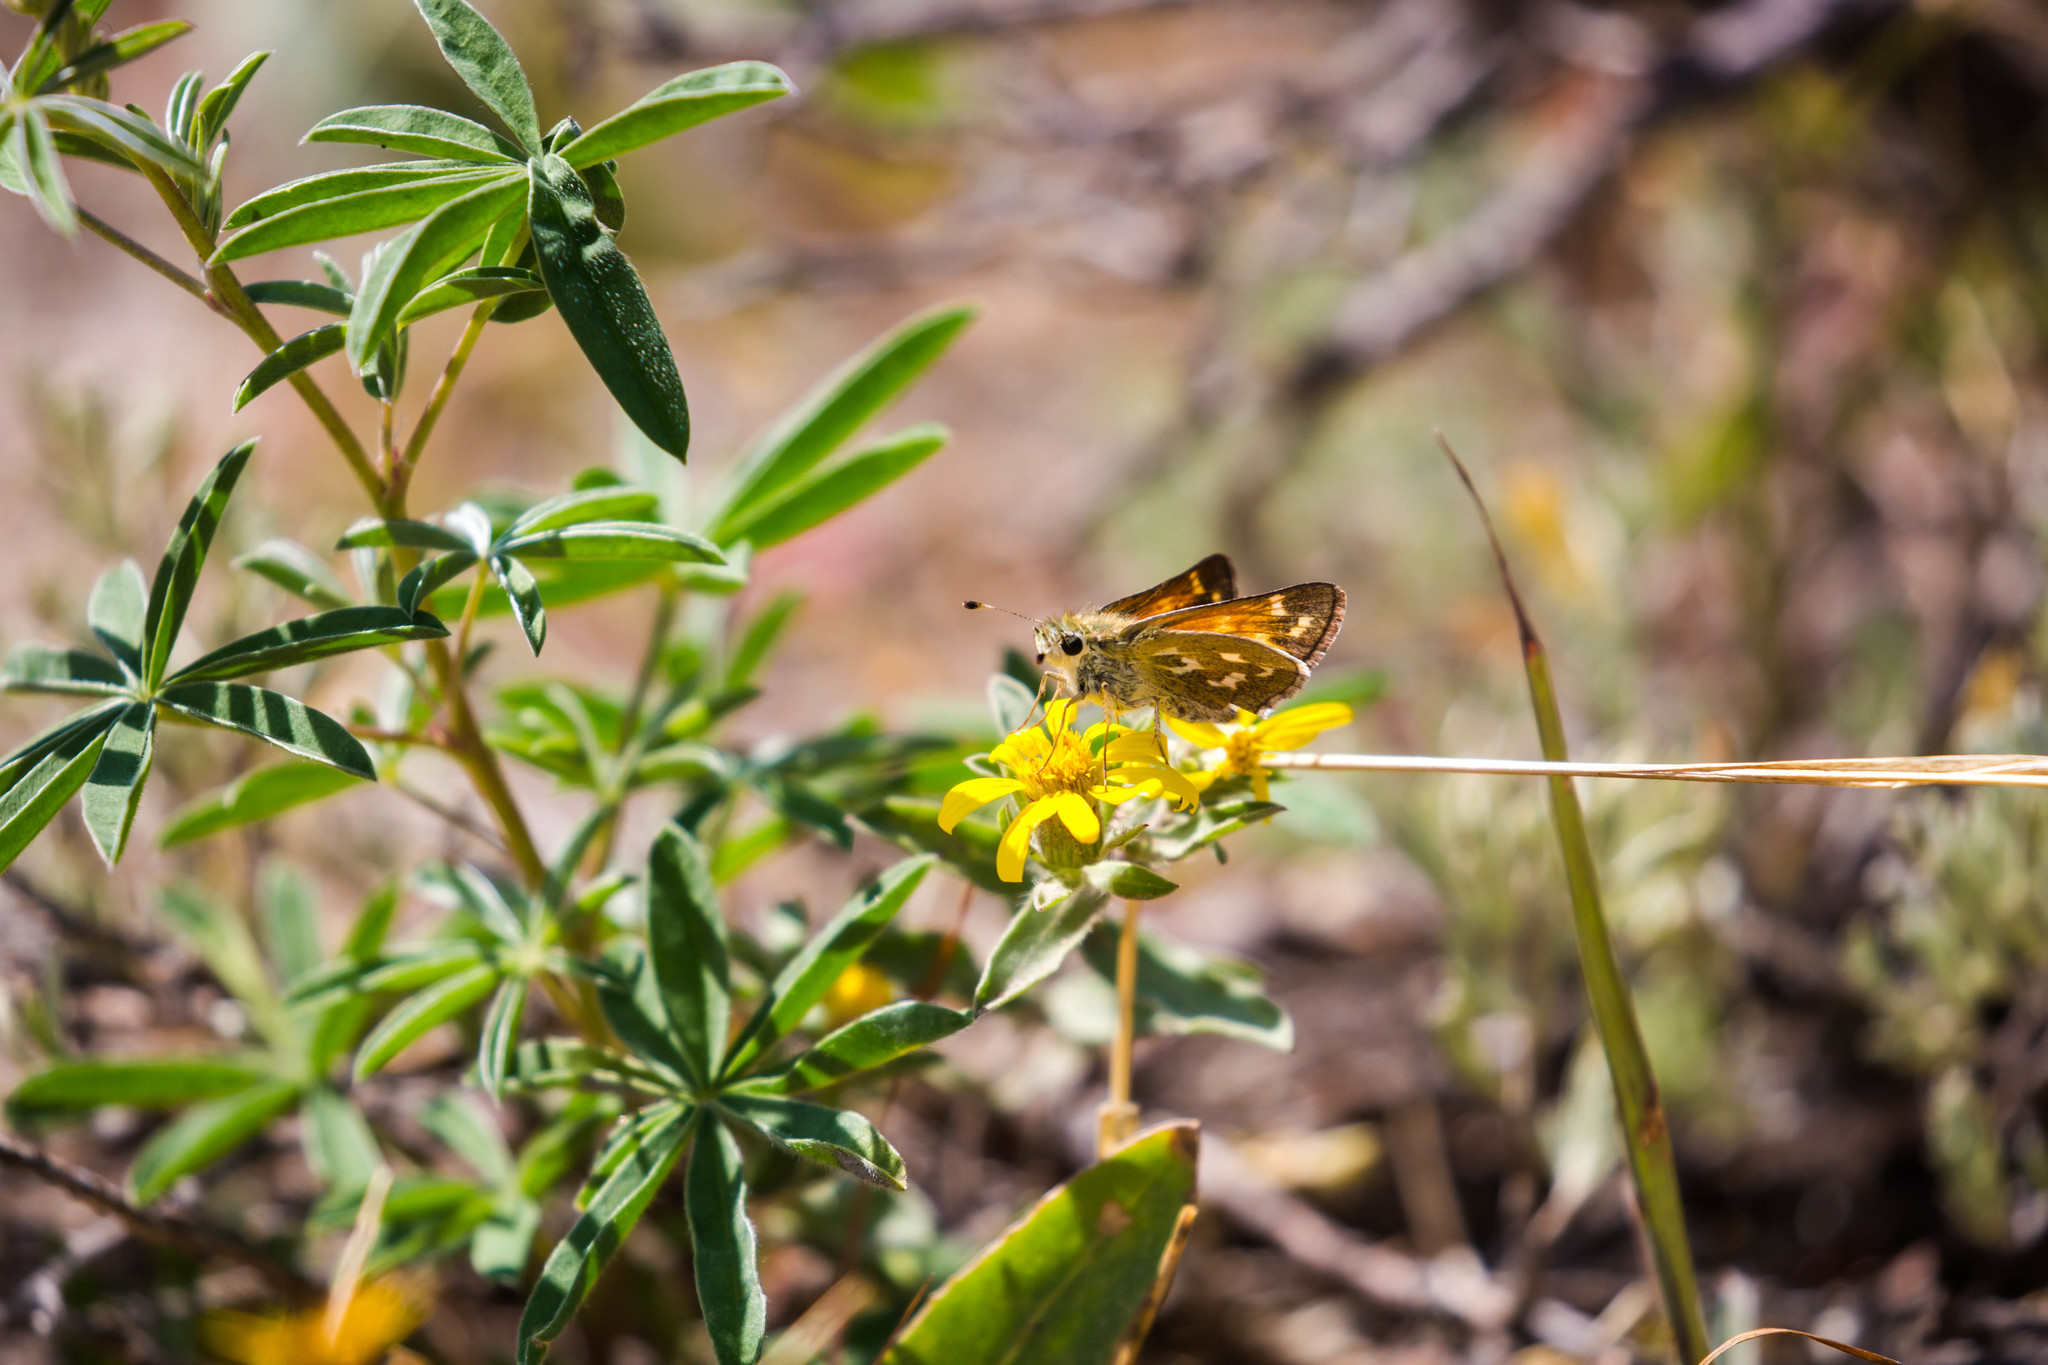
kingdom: Animalia
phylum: Arthropoda
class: Insecta
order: Lepidoptera
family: Hesperiidae
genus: Hesperia
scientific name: Hesperia comma
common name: Common branded skipper
